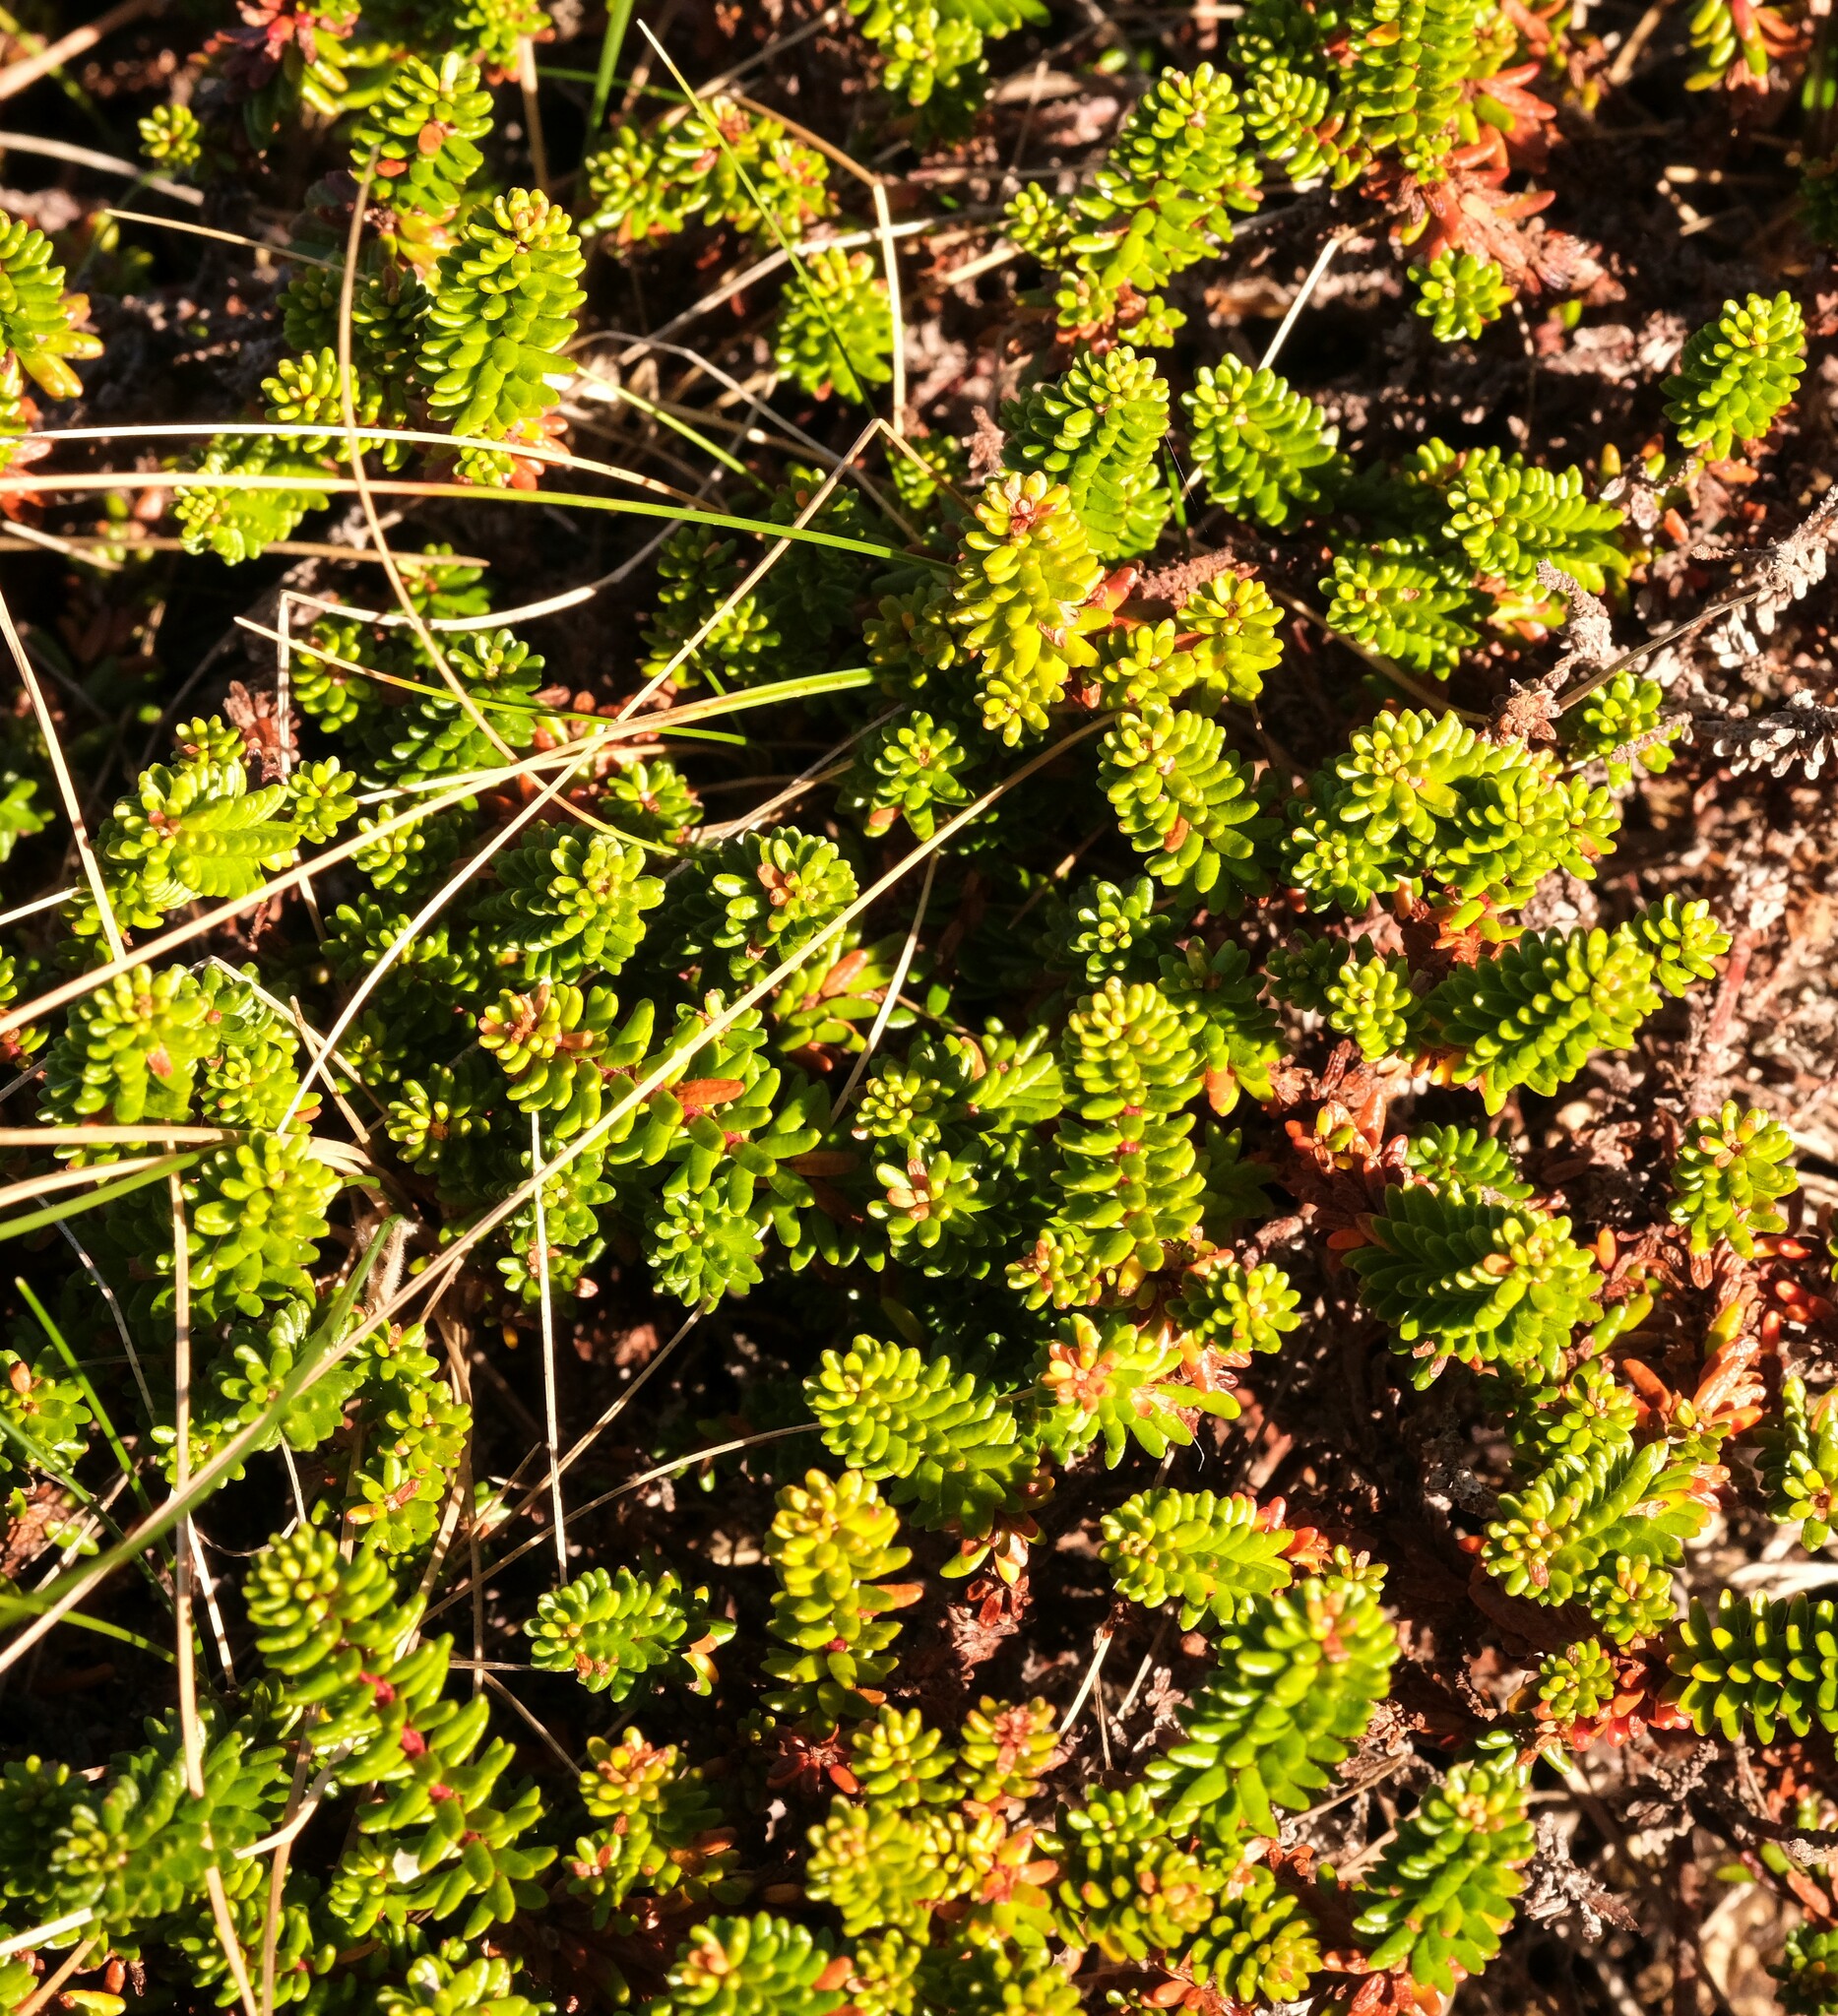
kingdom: Plantae
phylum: Tracheophyta
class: Magnoliopsida
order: Ericales
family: Ericaceae
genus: Empetrum
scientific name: Empetrum nigrum
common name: Black crowberry
